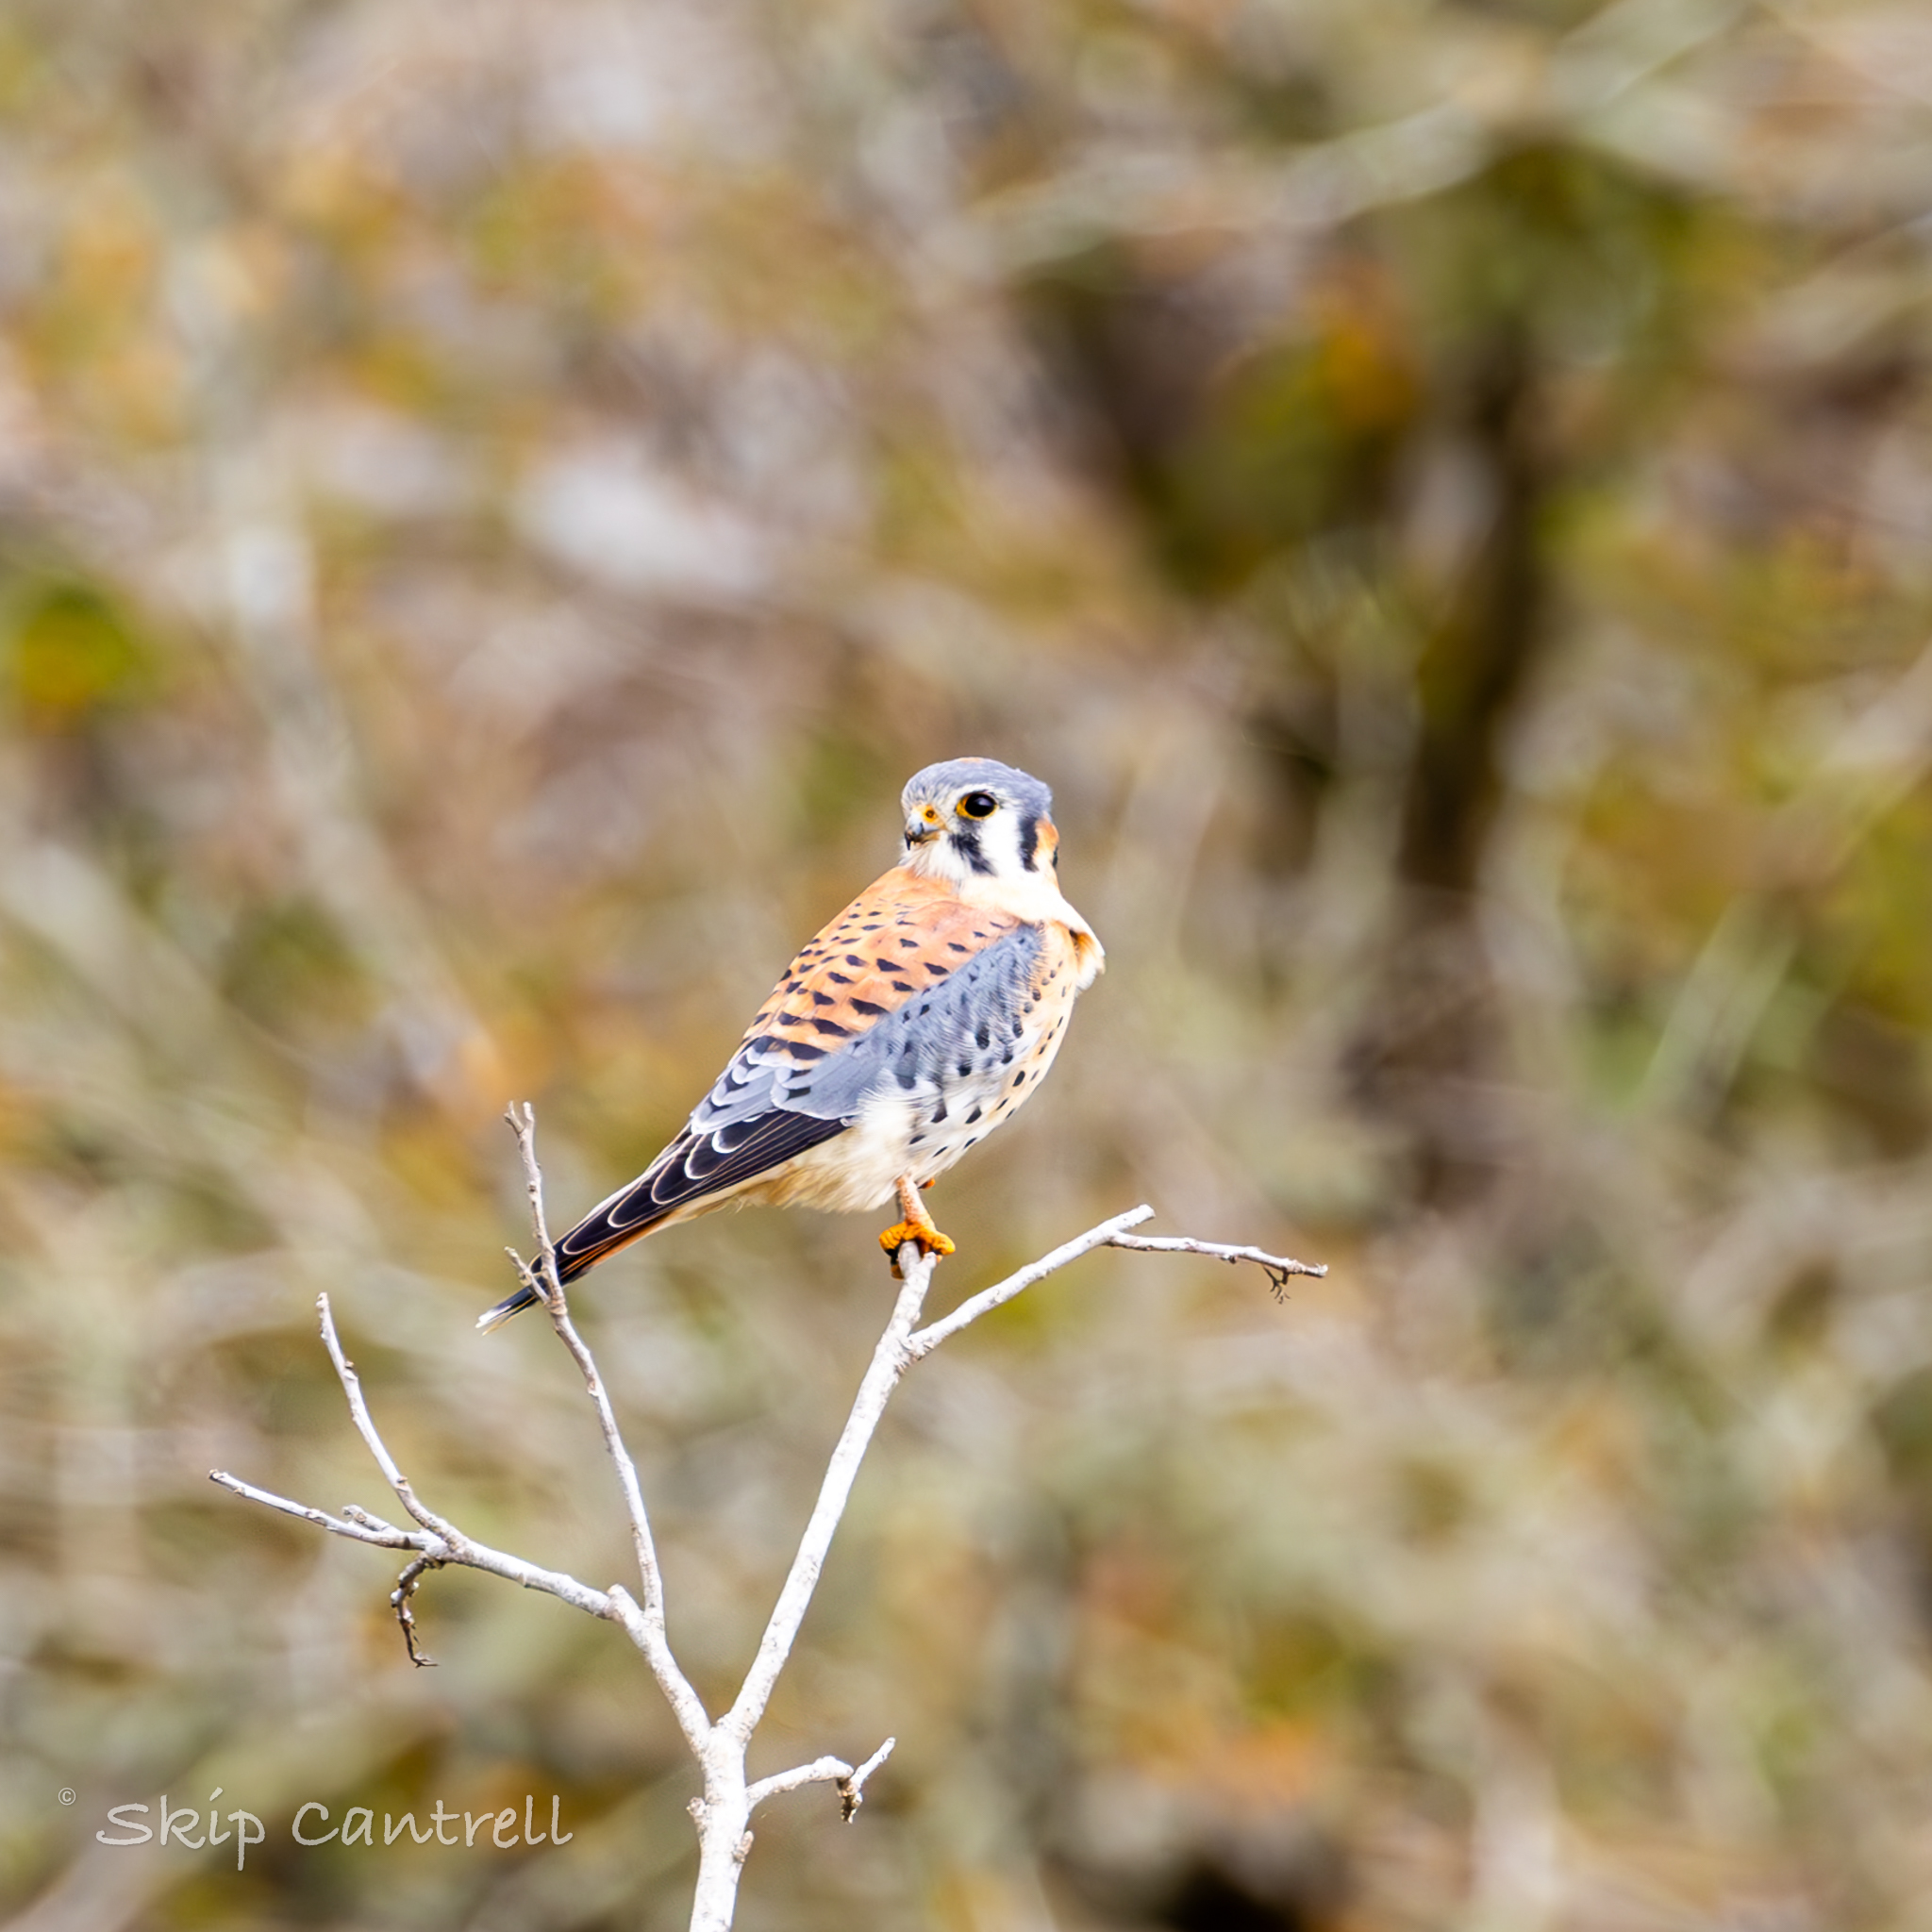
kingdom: Animalia
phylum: Chordata
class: Aves
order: Falconiformes
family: Falconidae
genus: Falco
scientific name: Falco sparverius
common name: American kestrel
